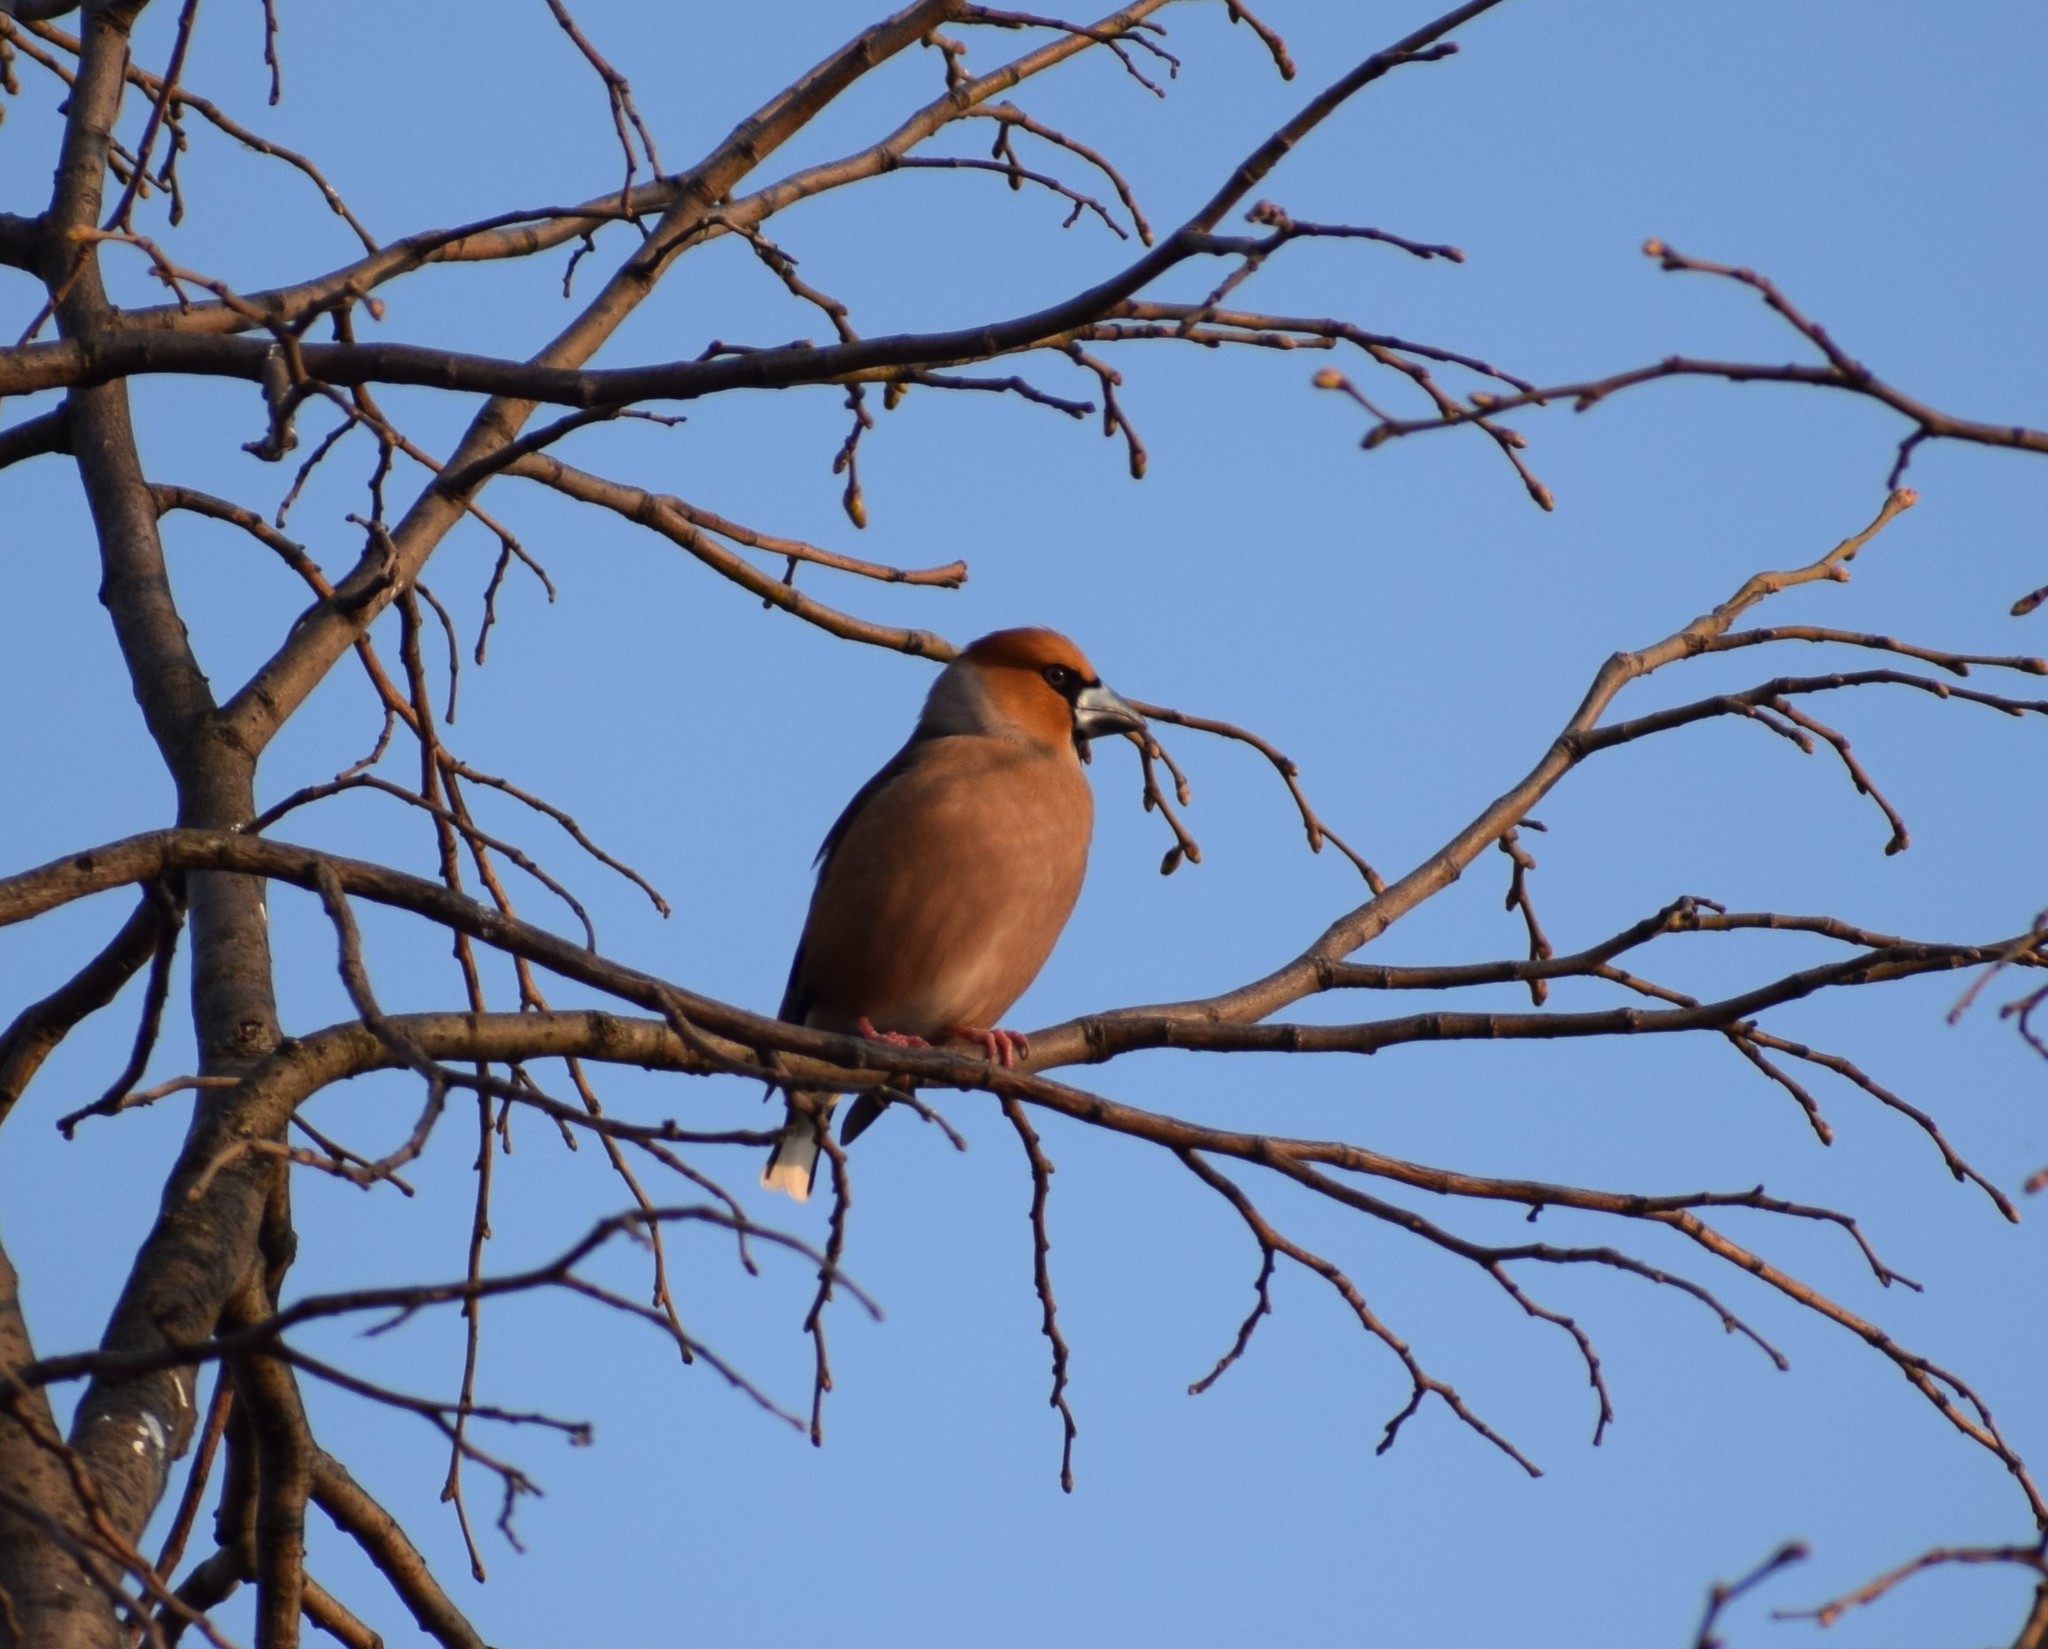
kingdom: Animalia
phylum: Chordata
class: Aves
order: Passeriformes
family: Fringillidae
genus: Coccothraustes
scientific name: Coccothraustes coccothraustes
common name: Hawfinch
